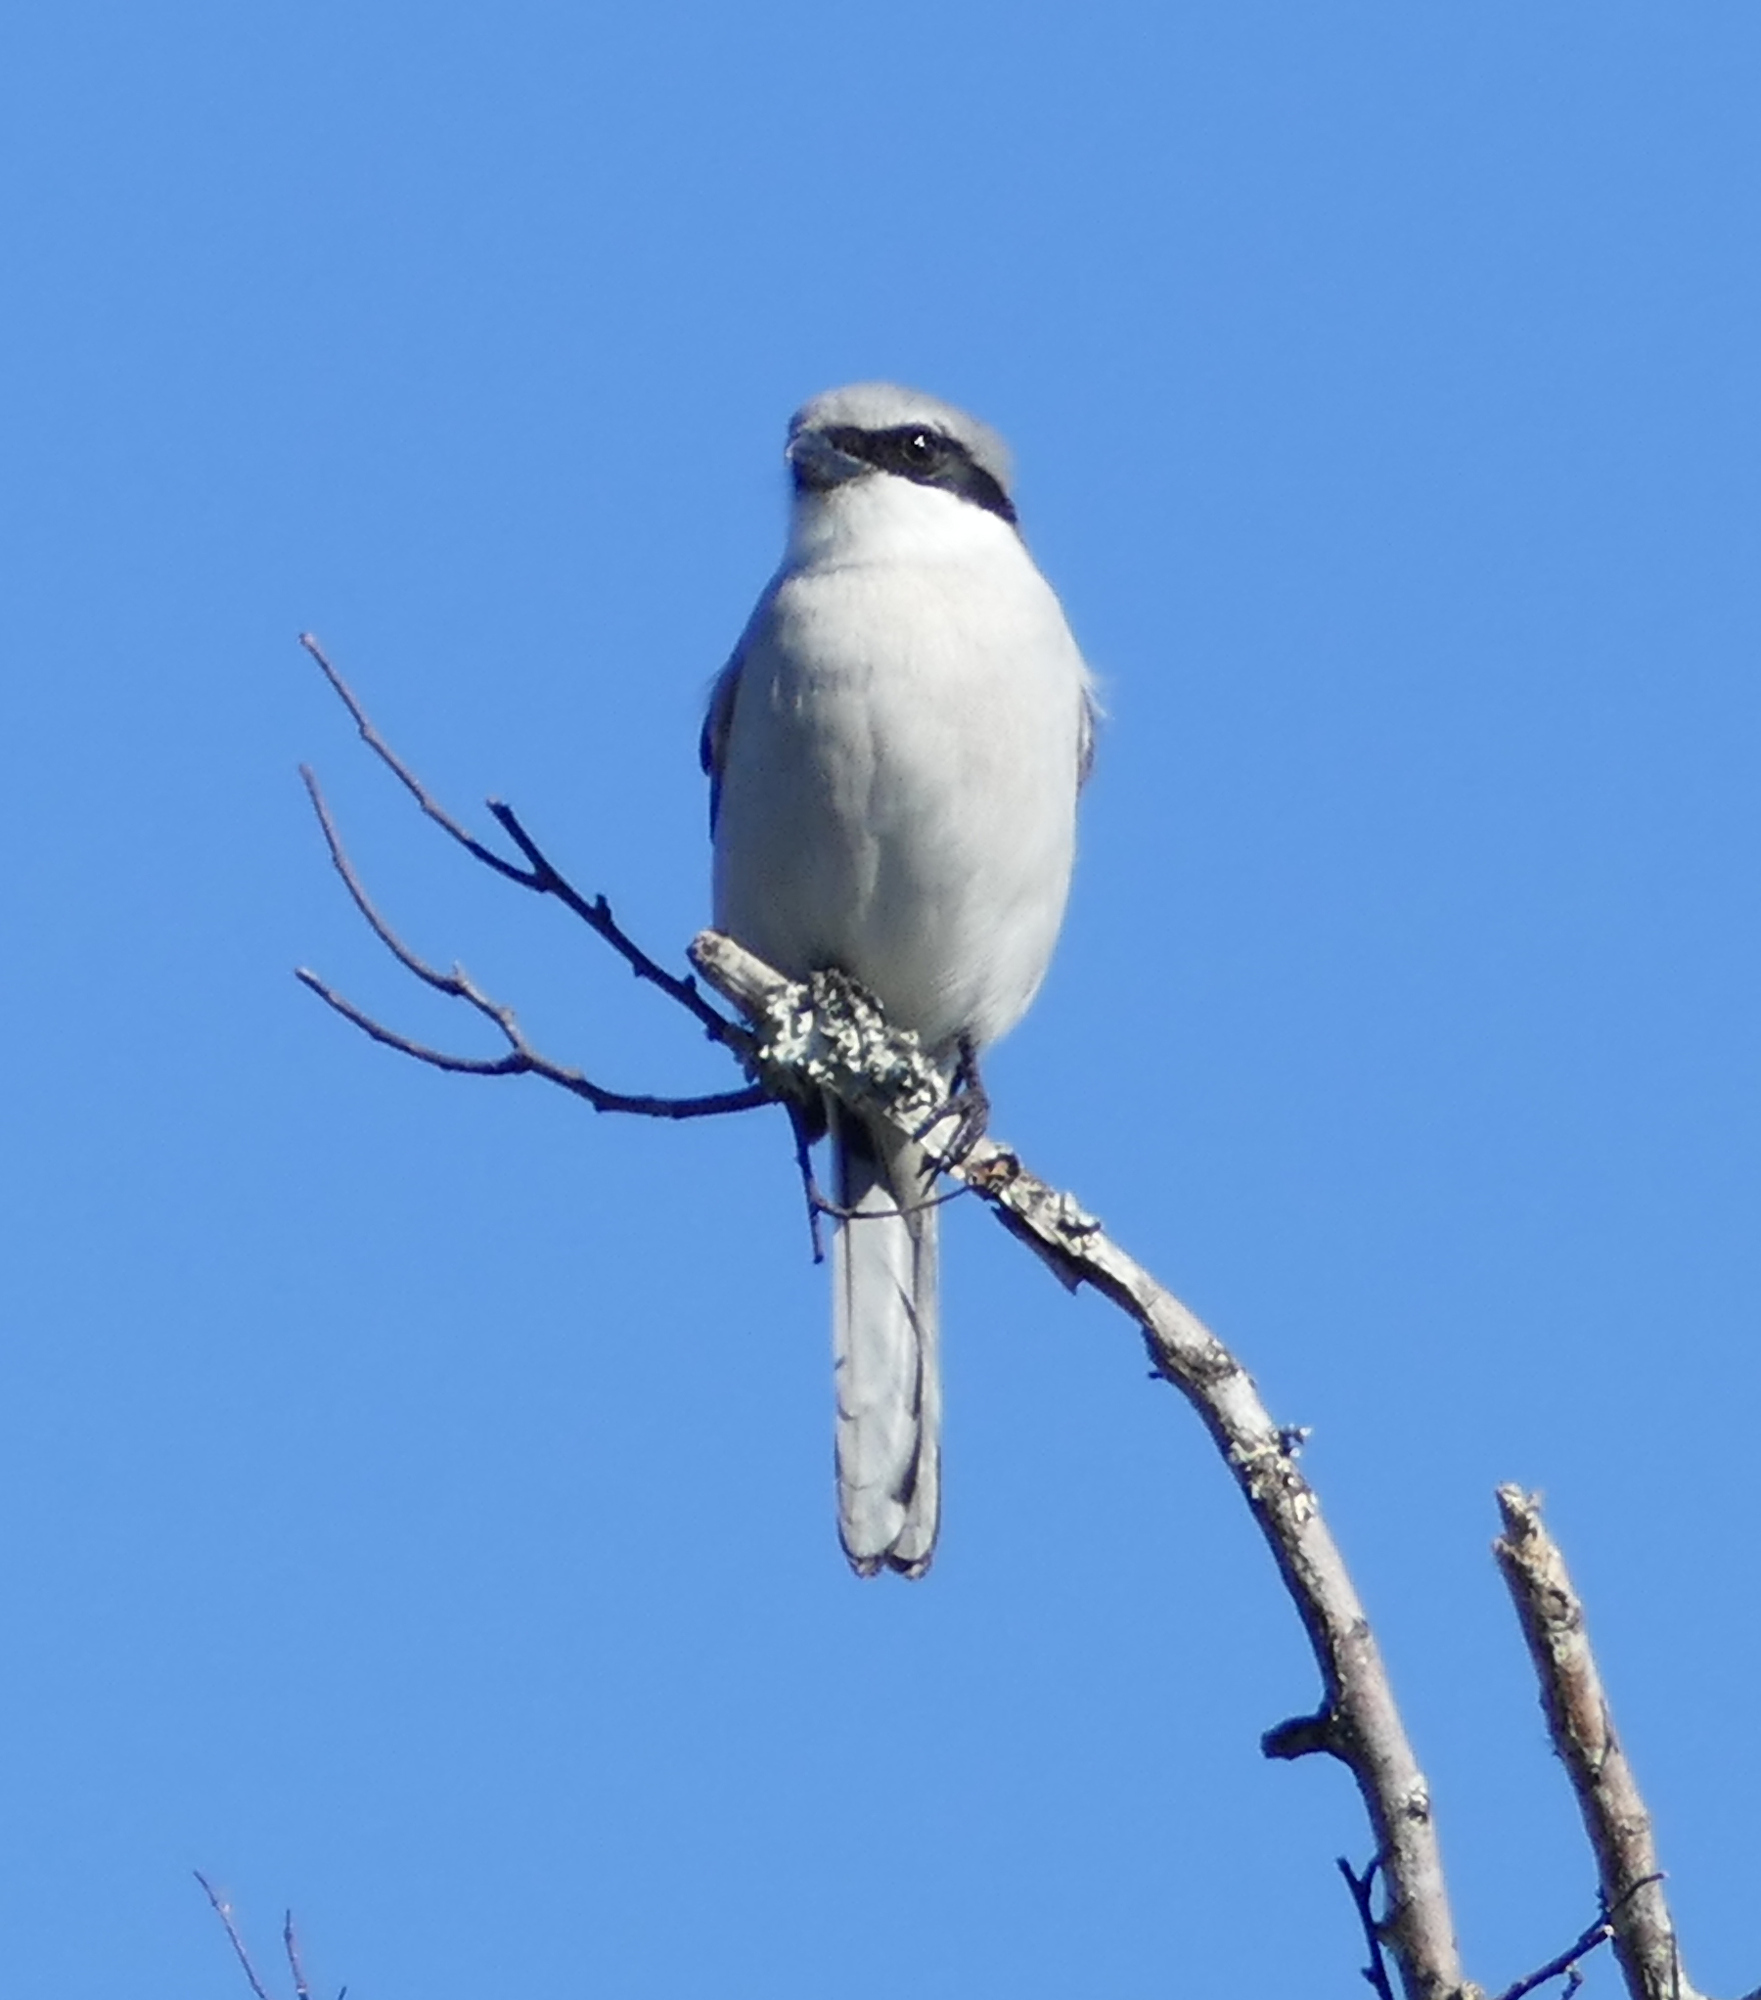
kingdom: Animalia
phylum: Chordata
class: Aves
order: Passeriformes
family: Laniidae
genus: Lanius
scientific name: Lanius ludovicianus
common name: Loggerhead shrike
